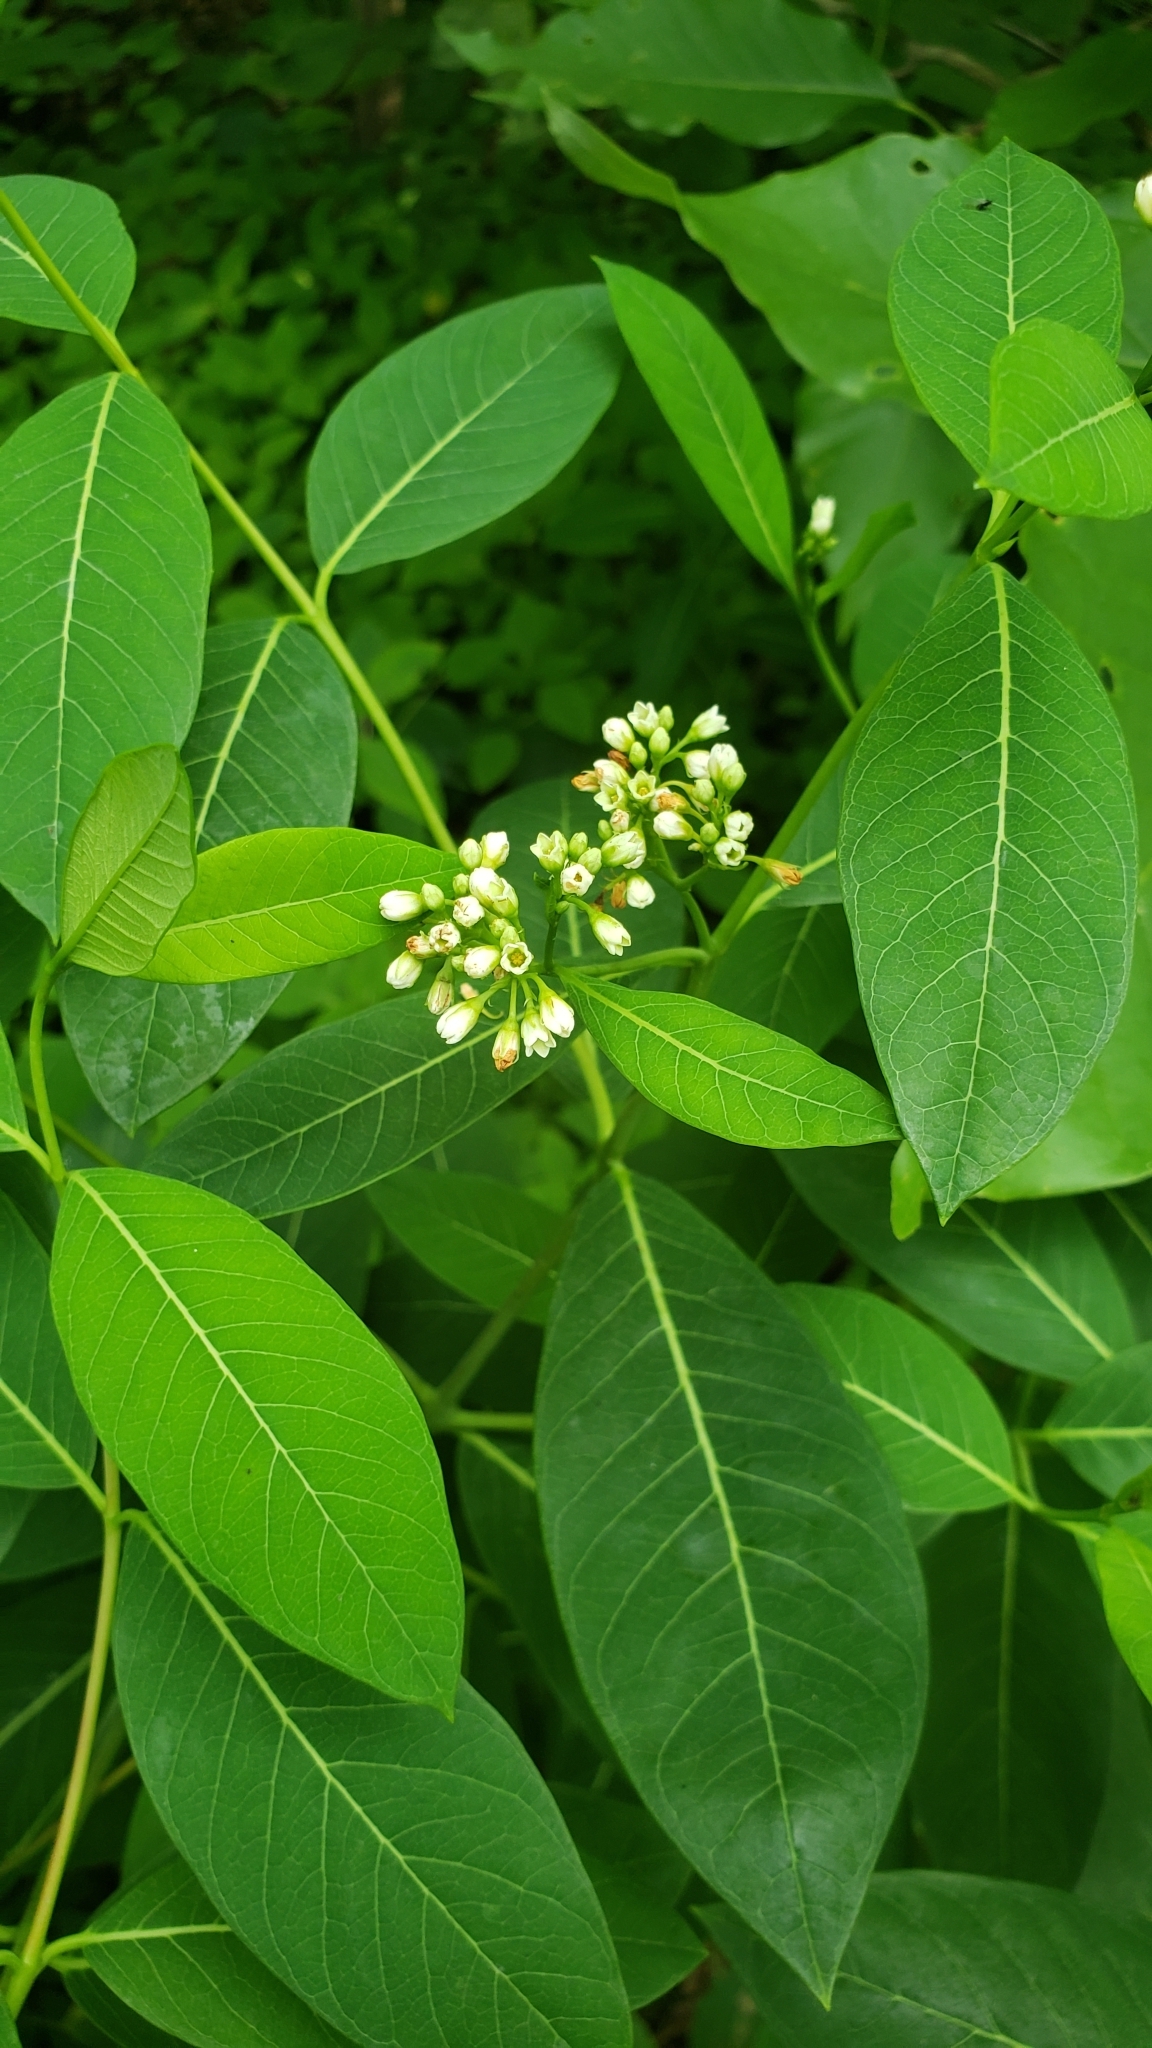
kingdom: Plantae
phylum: Tracheophyta
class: Magnoliopsida
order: Gentianales
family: Apocynaceae
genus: Apocynum
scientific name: Apocynum cannabinum
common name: Hemp dogbane
